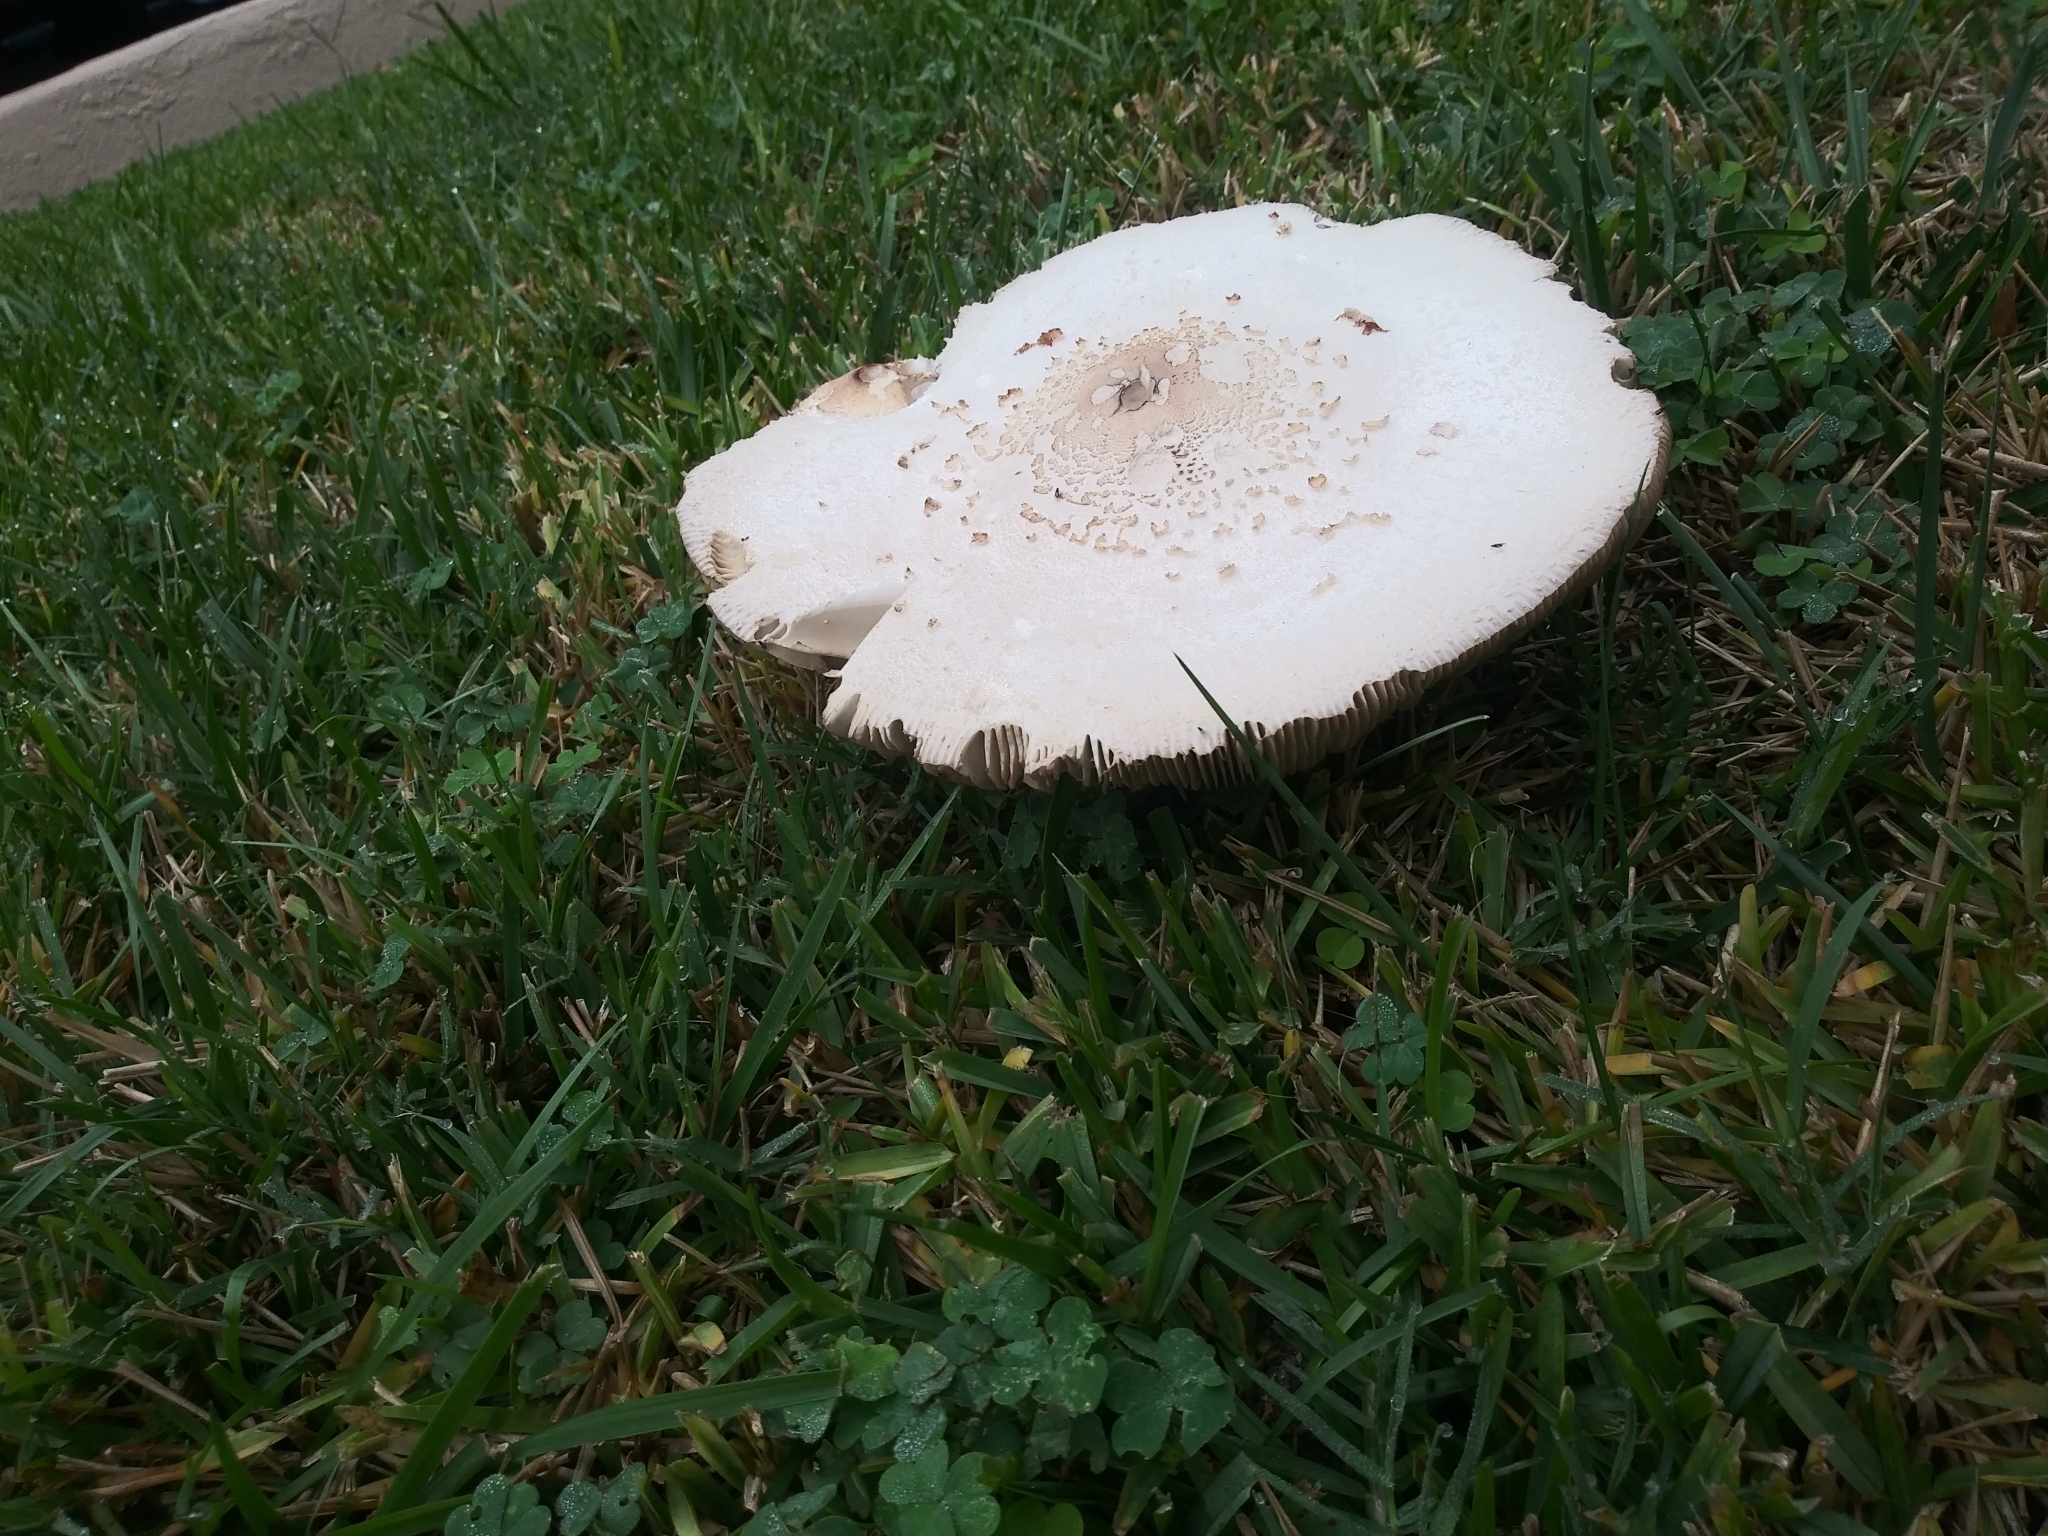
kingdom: Fungi
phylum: Basidiomycota
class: Agaricomycetes
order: Agaricales
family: Agaricaceae
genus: Chlorophyllum
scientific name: Chlorophyllum molybdites
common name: False parasol
